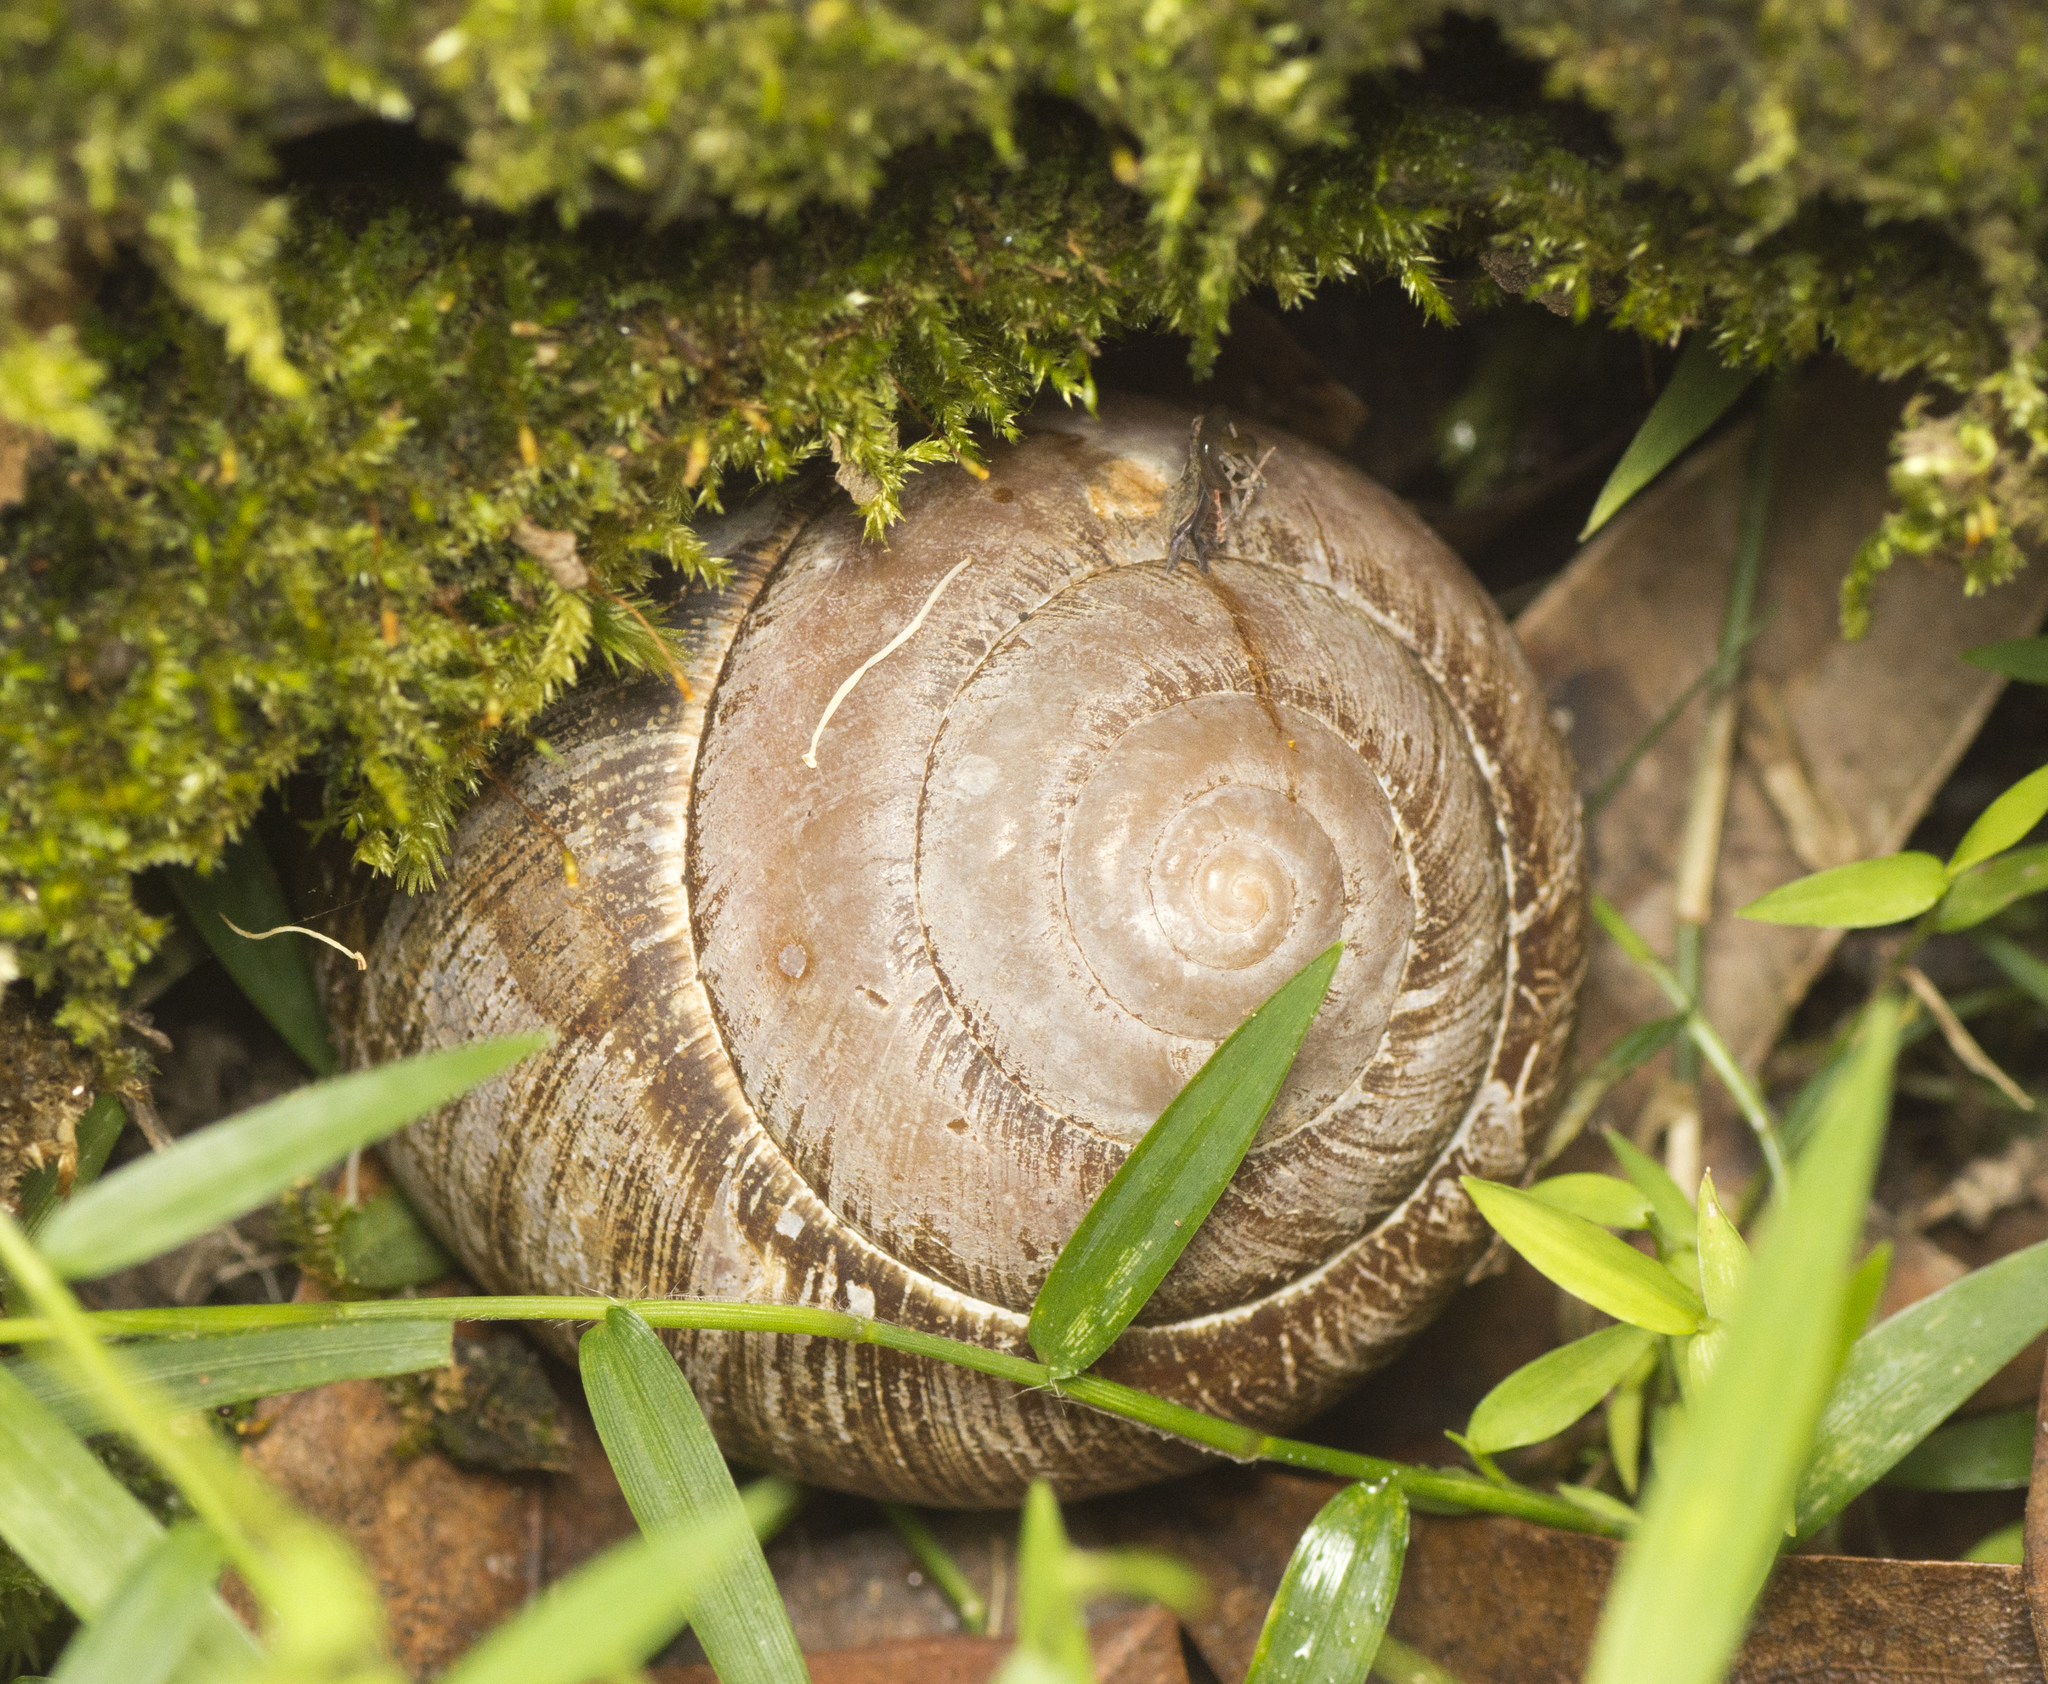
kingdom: Animalia
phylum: Mollusca
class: Gastropoda
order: Stylommatophora
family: Camaenidae
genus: Sphaerospira
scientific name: Sphaerospira fraseri
